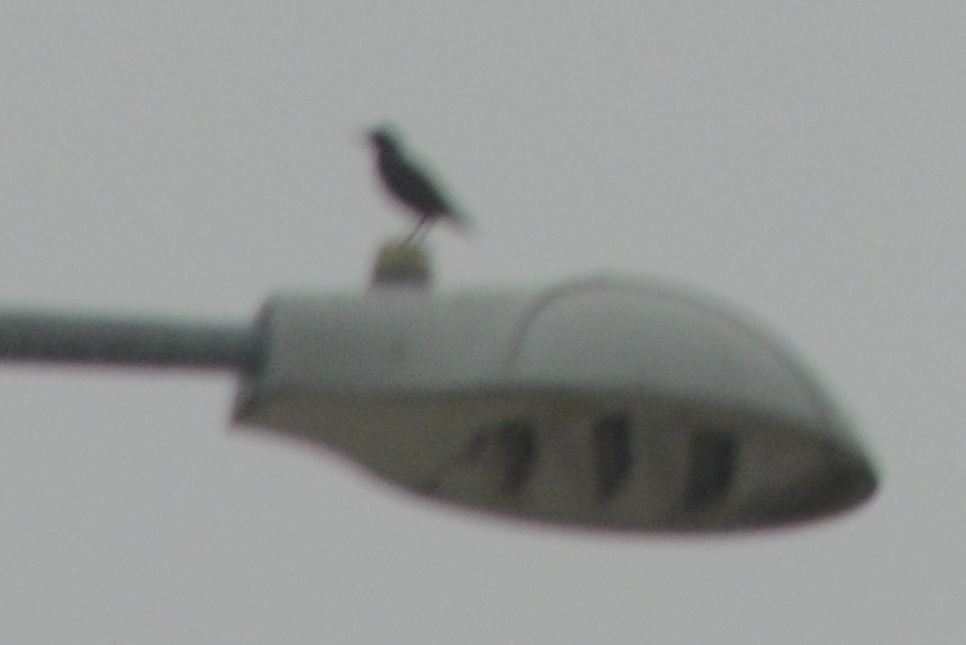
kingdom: Animalia
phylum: Chordata
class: Aves
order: Passeriformes
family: Sturnidae
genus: Sturnus
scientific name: Sturnus vulgaris
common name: Common starling
